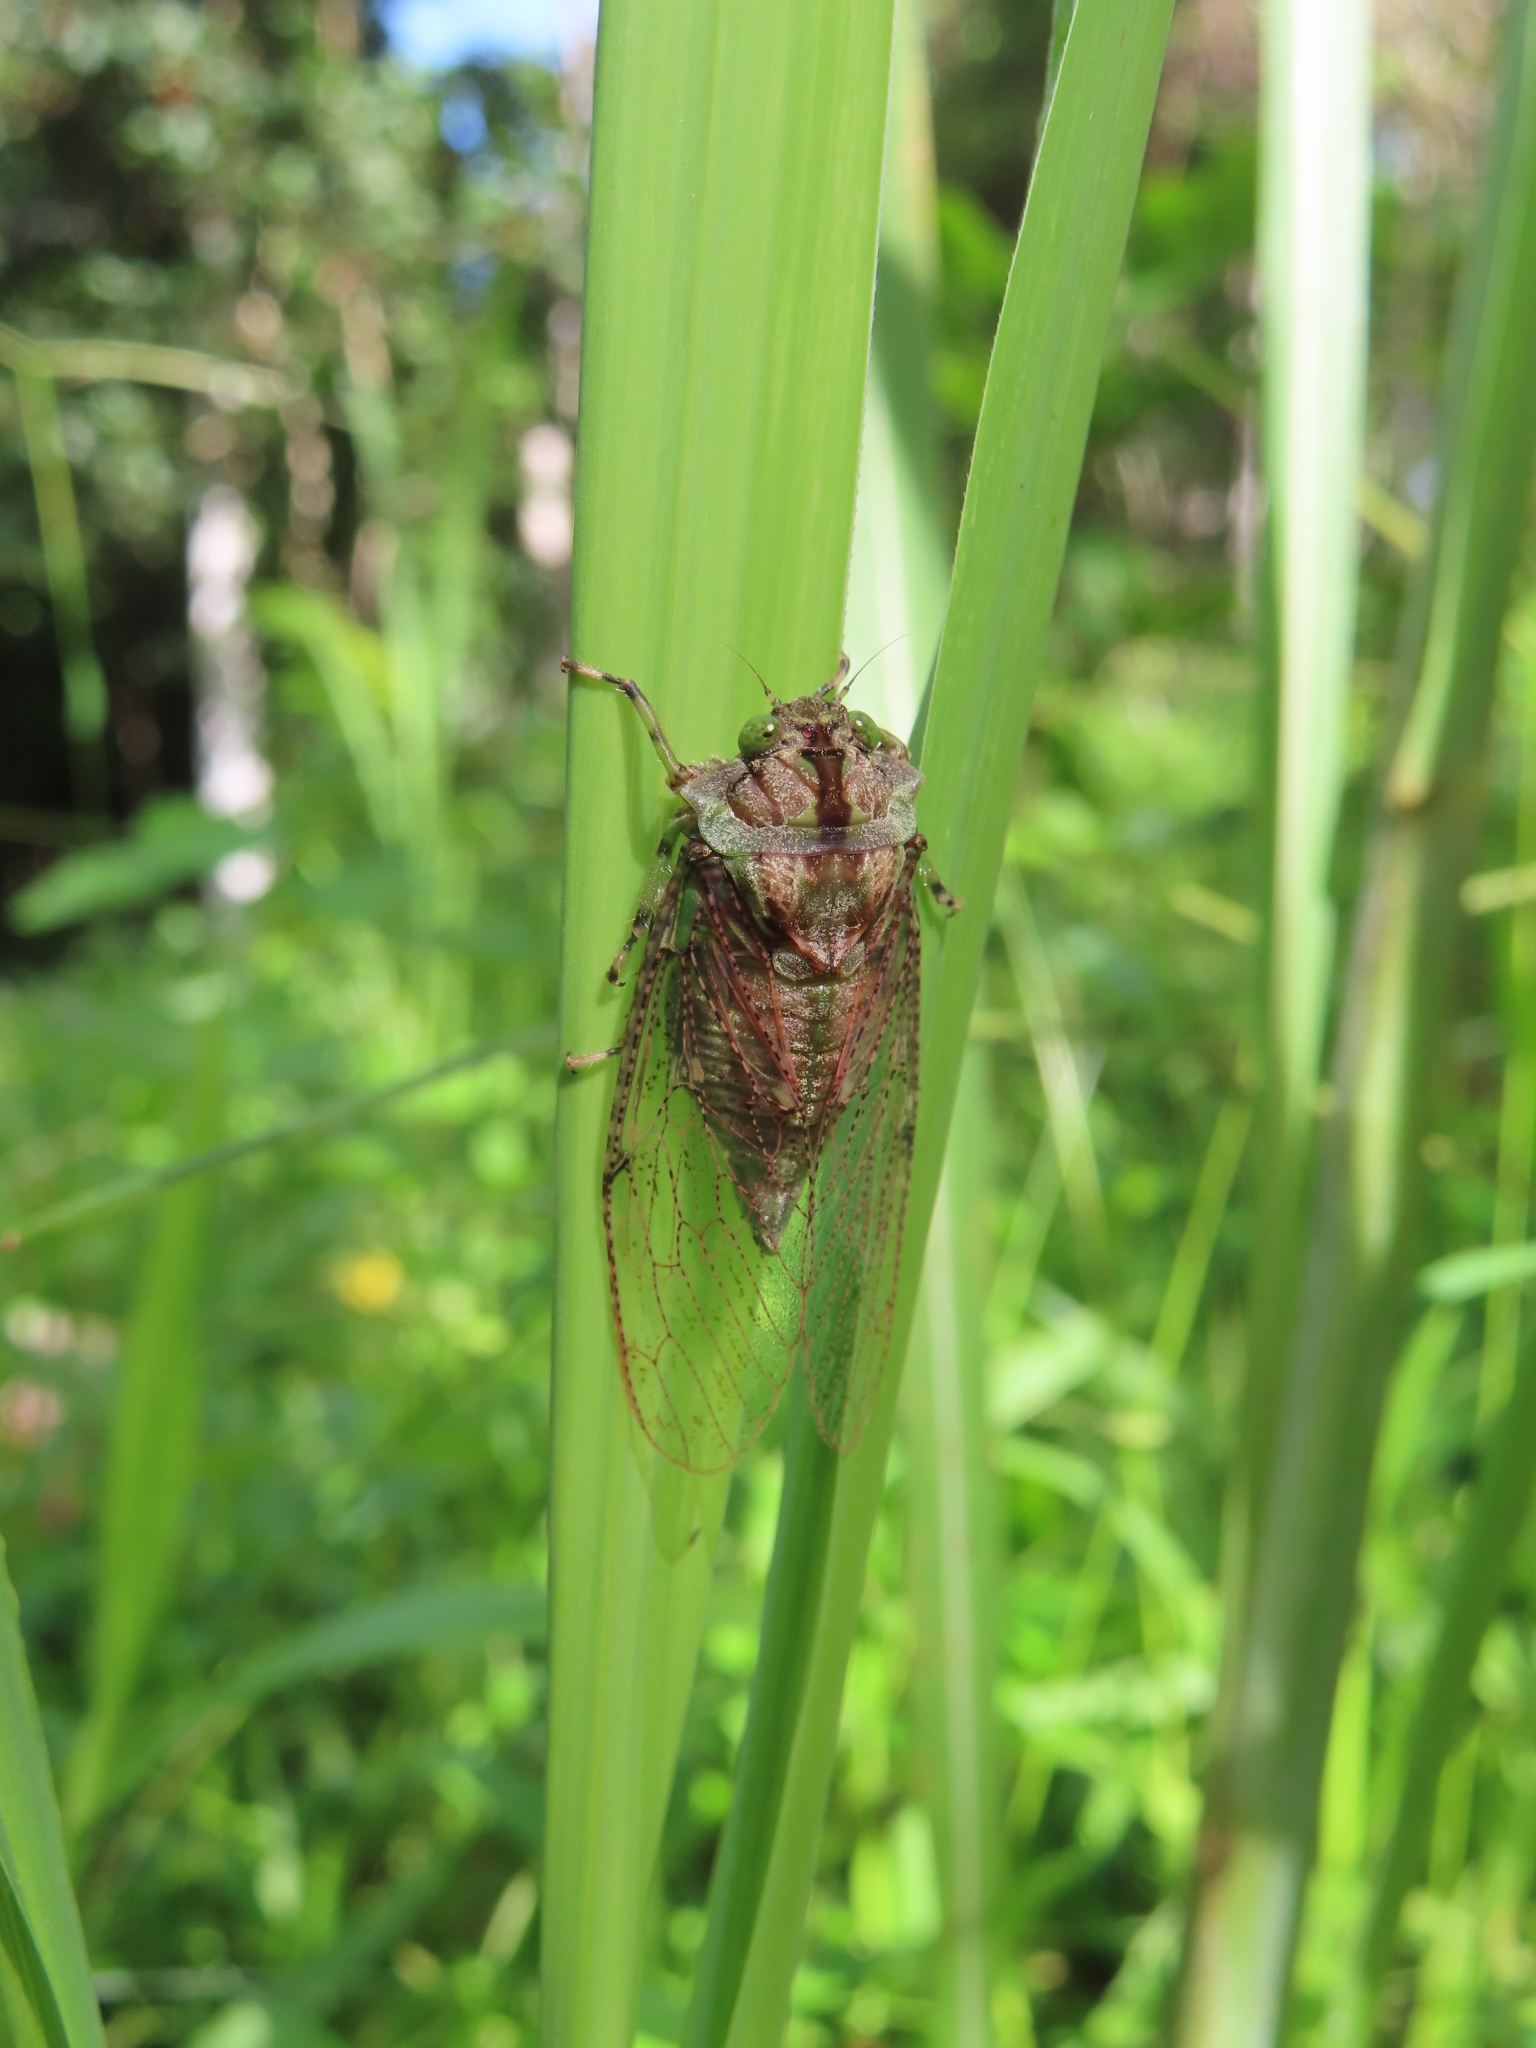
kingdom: Animalia
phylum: Arthropoda
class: Insecta
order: Hemiptera
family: Cicadidae
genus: Borencona
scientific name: Borencona aguadilla
